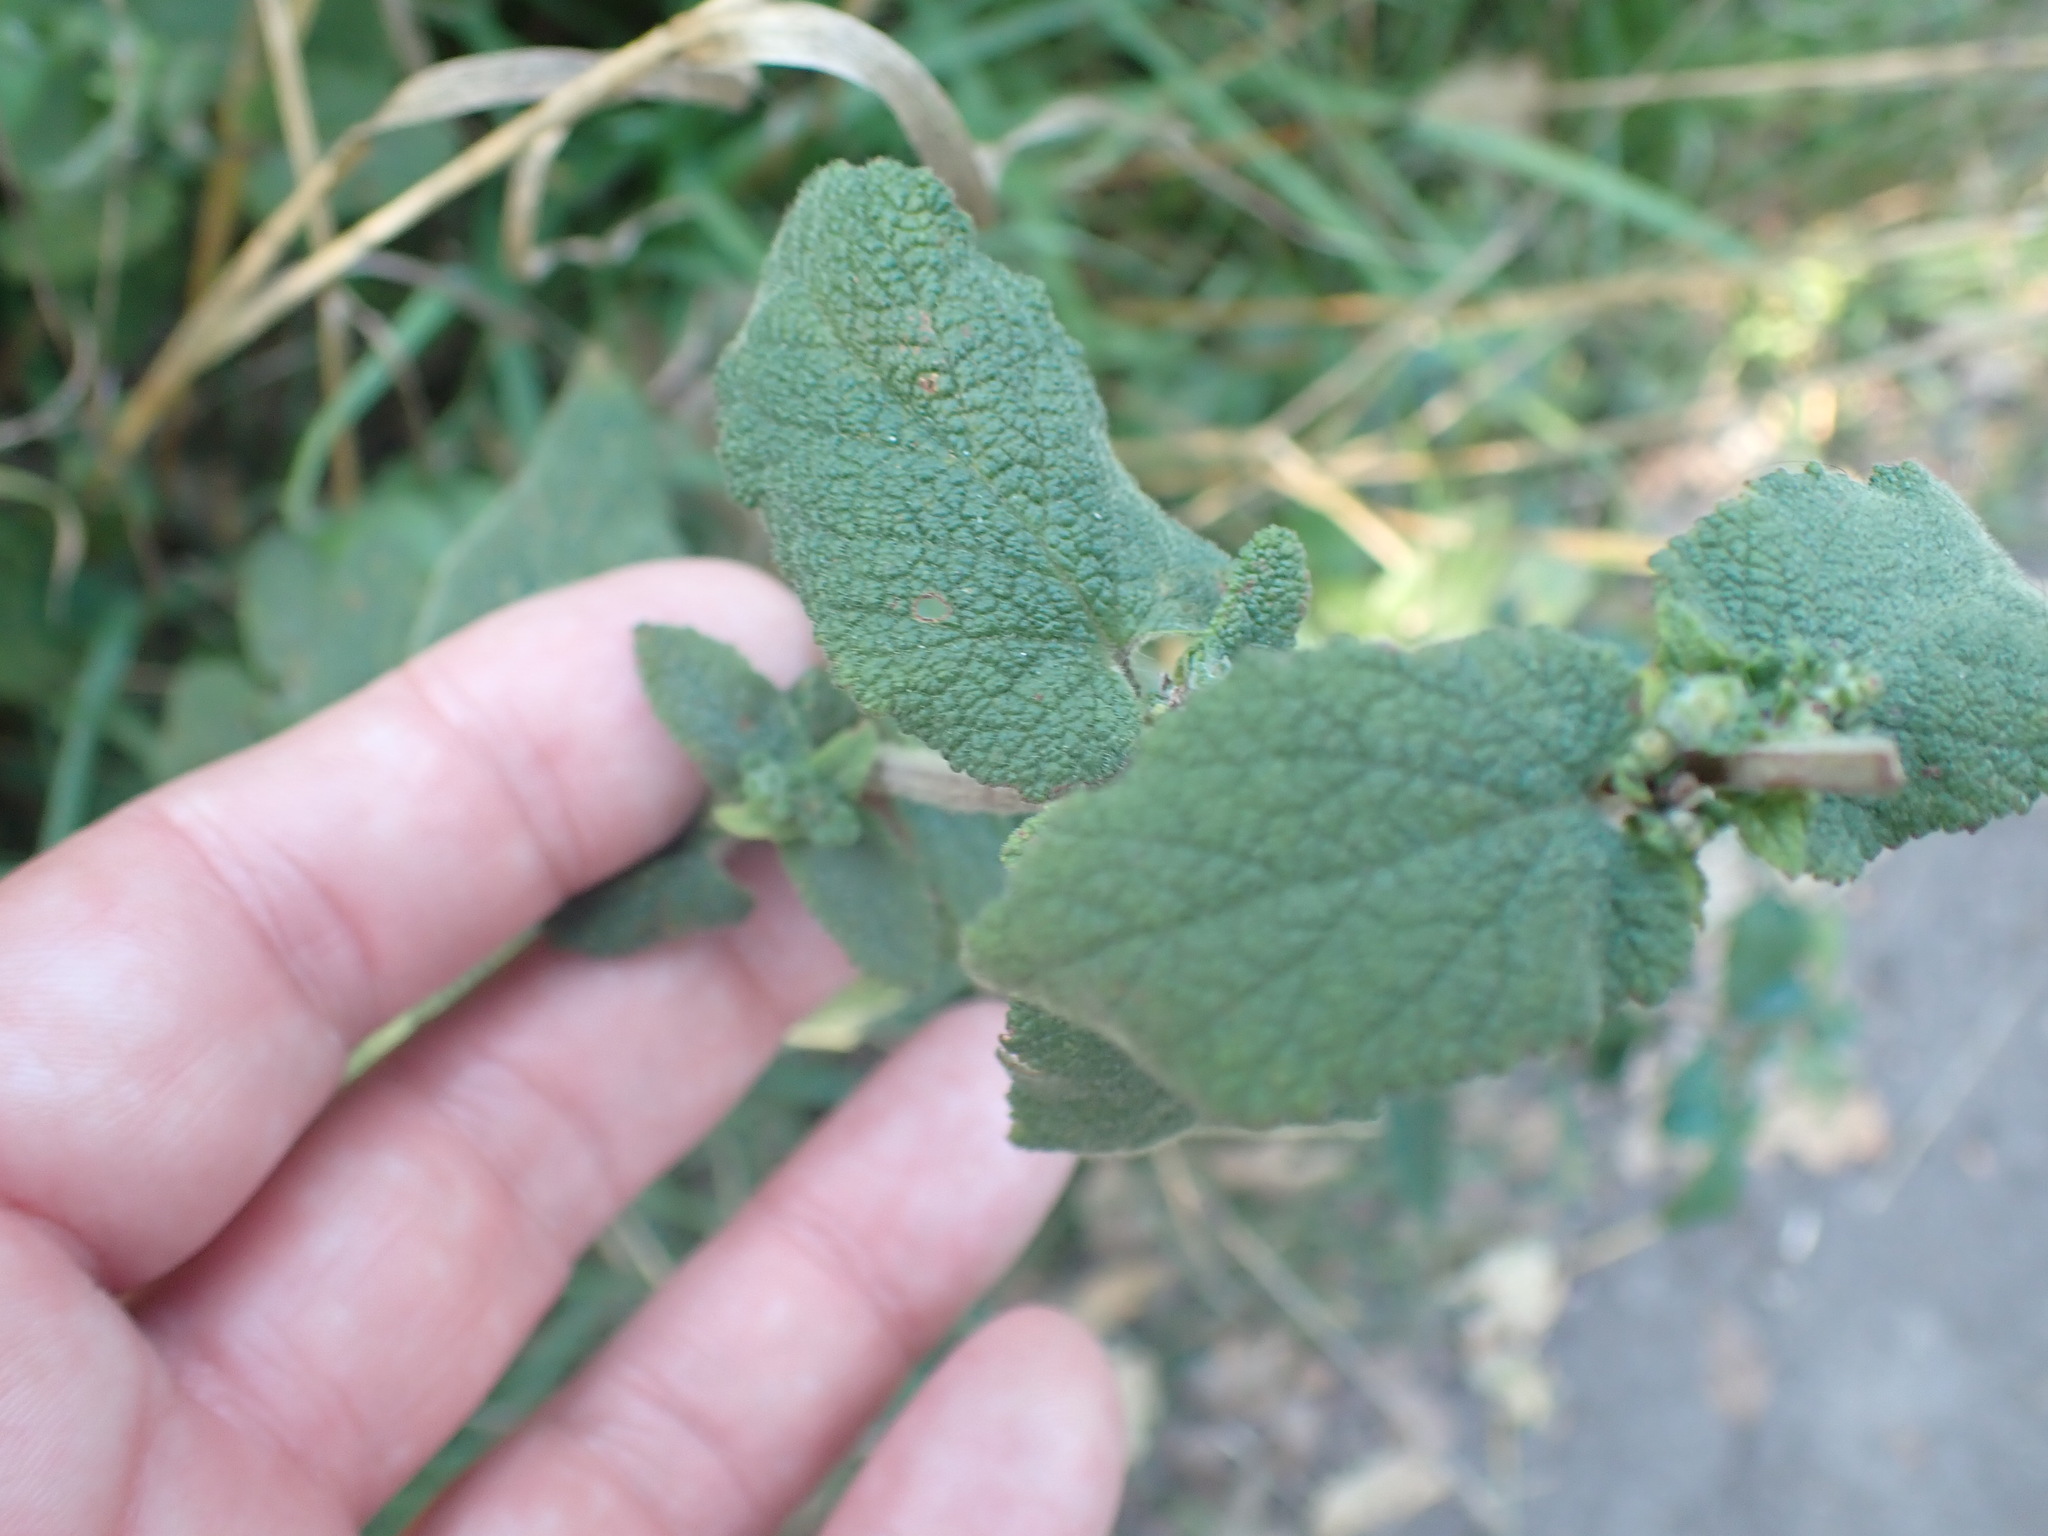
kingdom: Plantae
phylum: Tracheophyta
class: Magnoliopsida
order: Lamiales
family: Lamiaceae
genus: Teucrium
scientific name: Teucrium scorodonia
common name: Woodland germander
